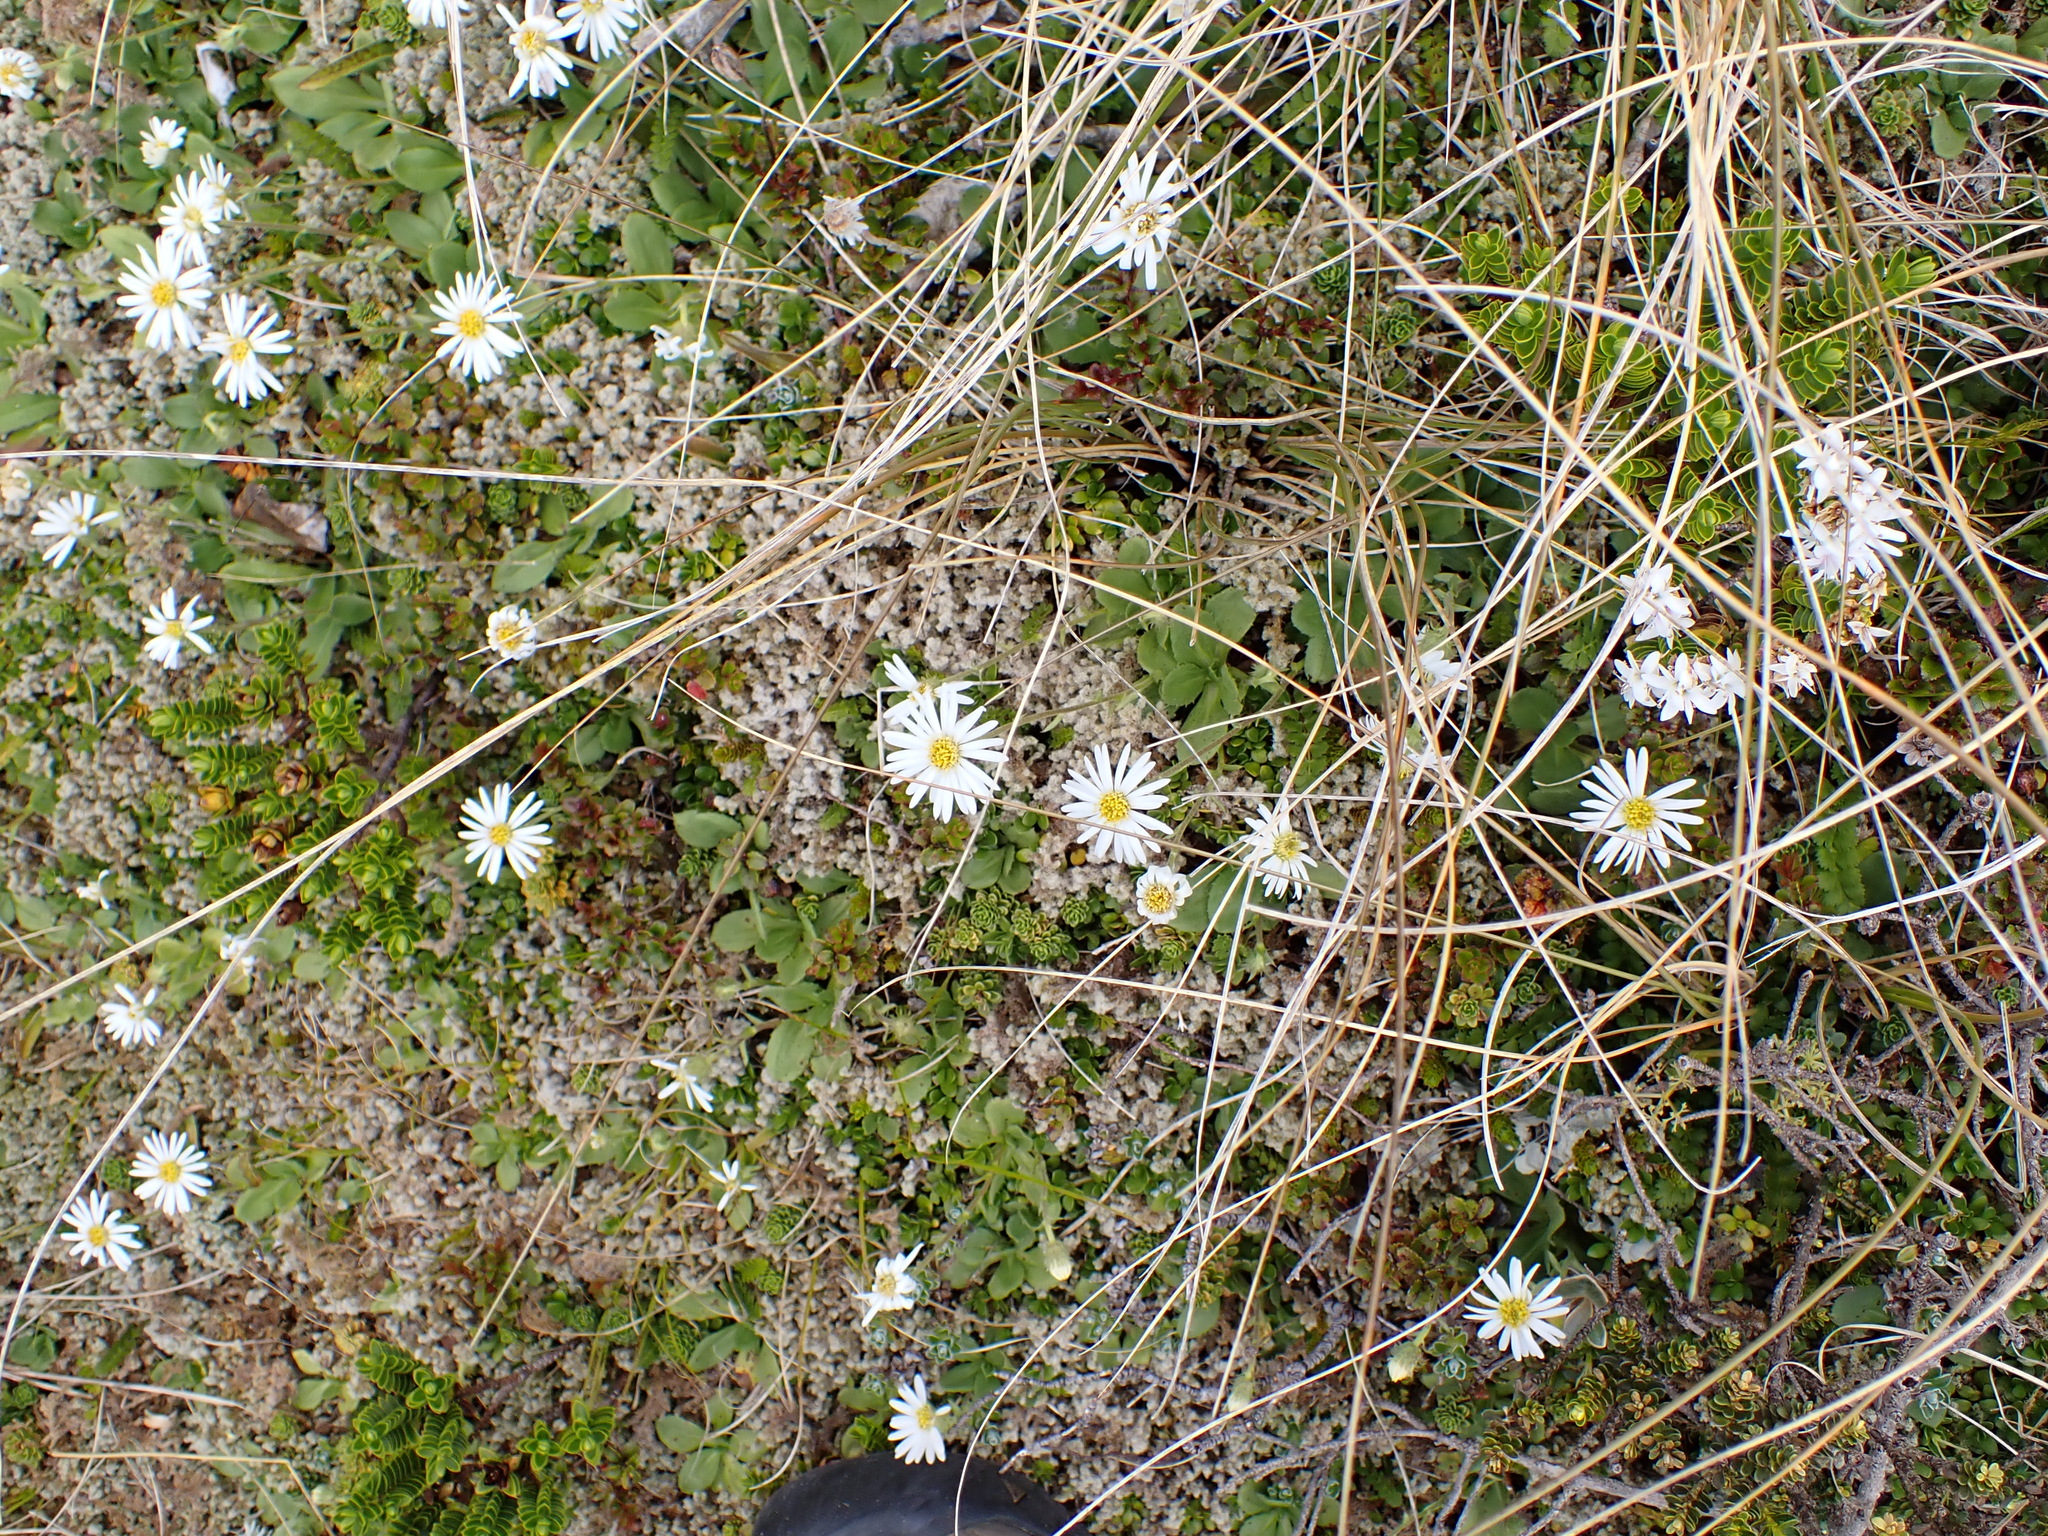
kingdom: Plantae
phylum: Tracheophyta
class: Magnoliopsida
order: Asterales
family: Asteraceae
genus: Celmisia
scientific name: Celmisia glandulosa
